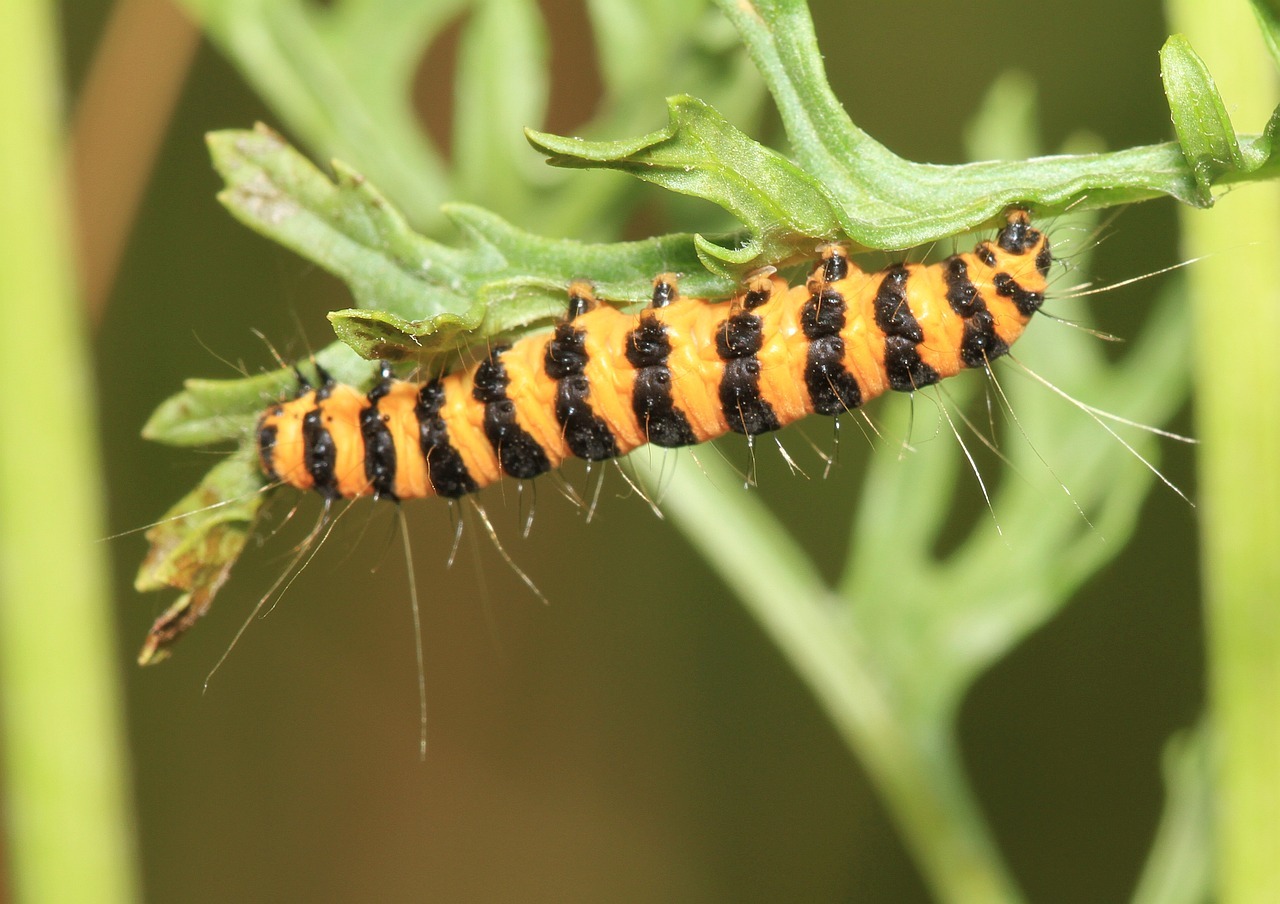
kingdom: Animalia
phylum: Arthropoda
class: Insecta
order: Lepidoptera
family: Erebidae
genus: Tyria
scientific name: Tyria jacobaeae
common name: Cinnabar
